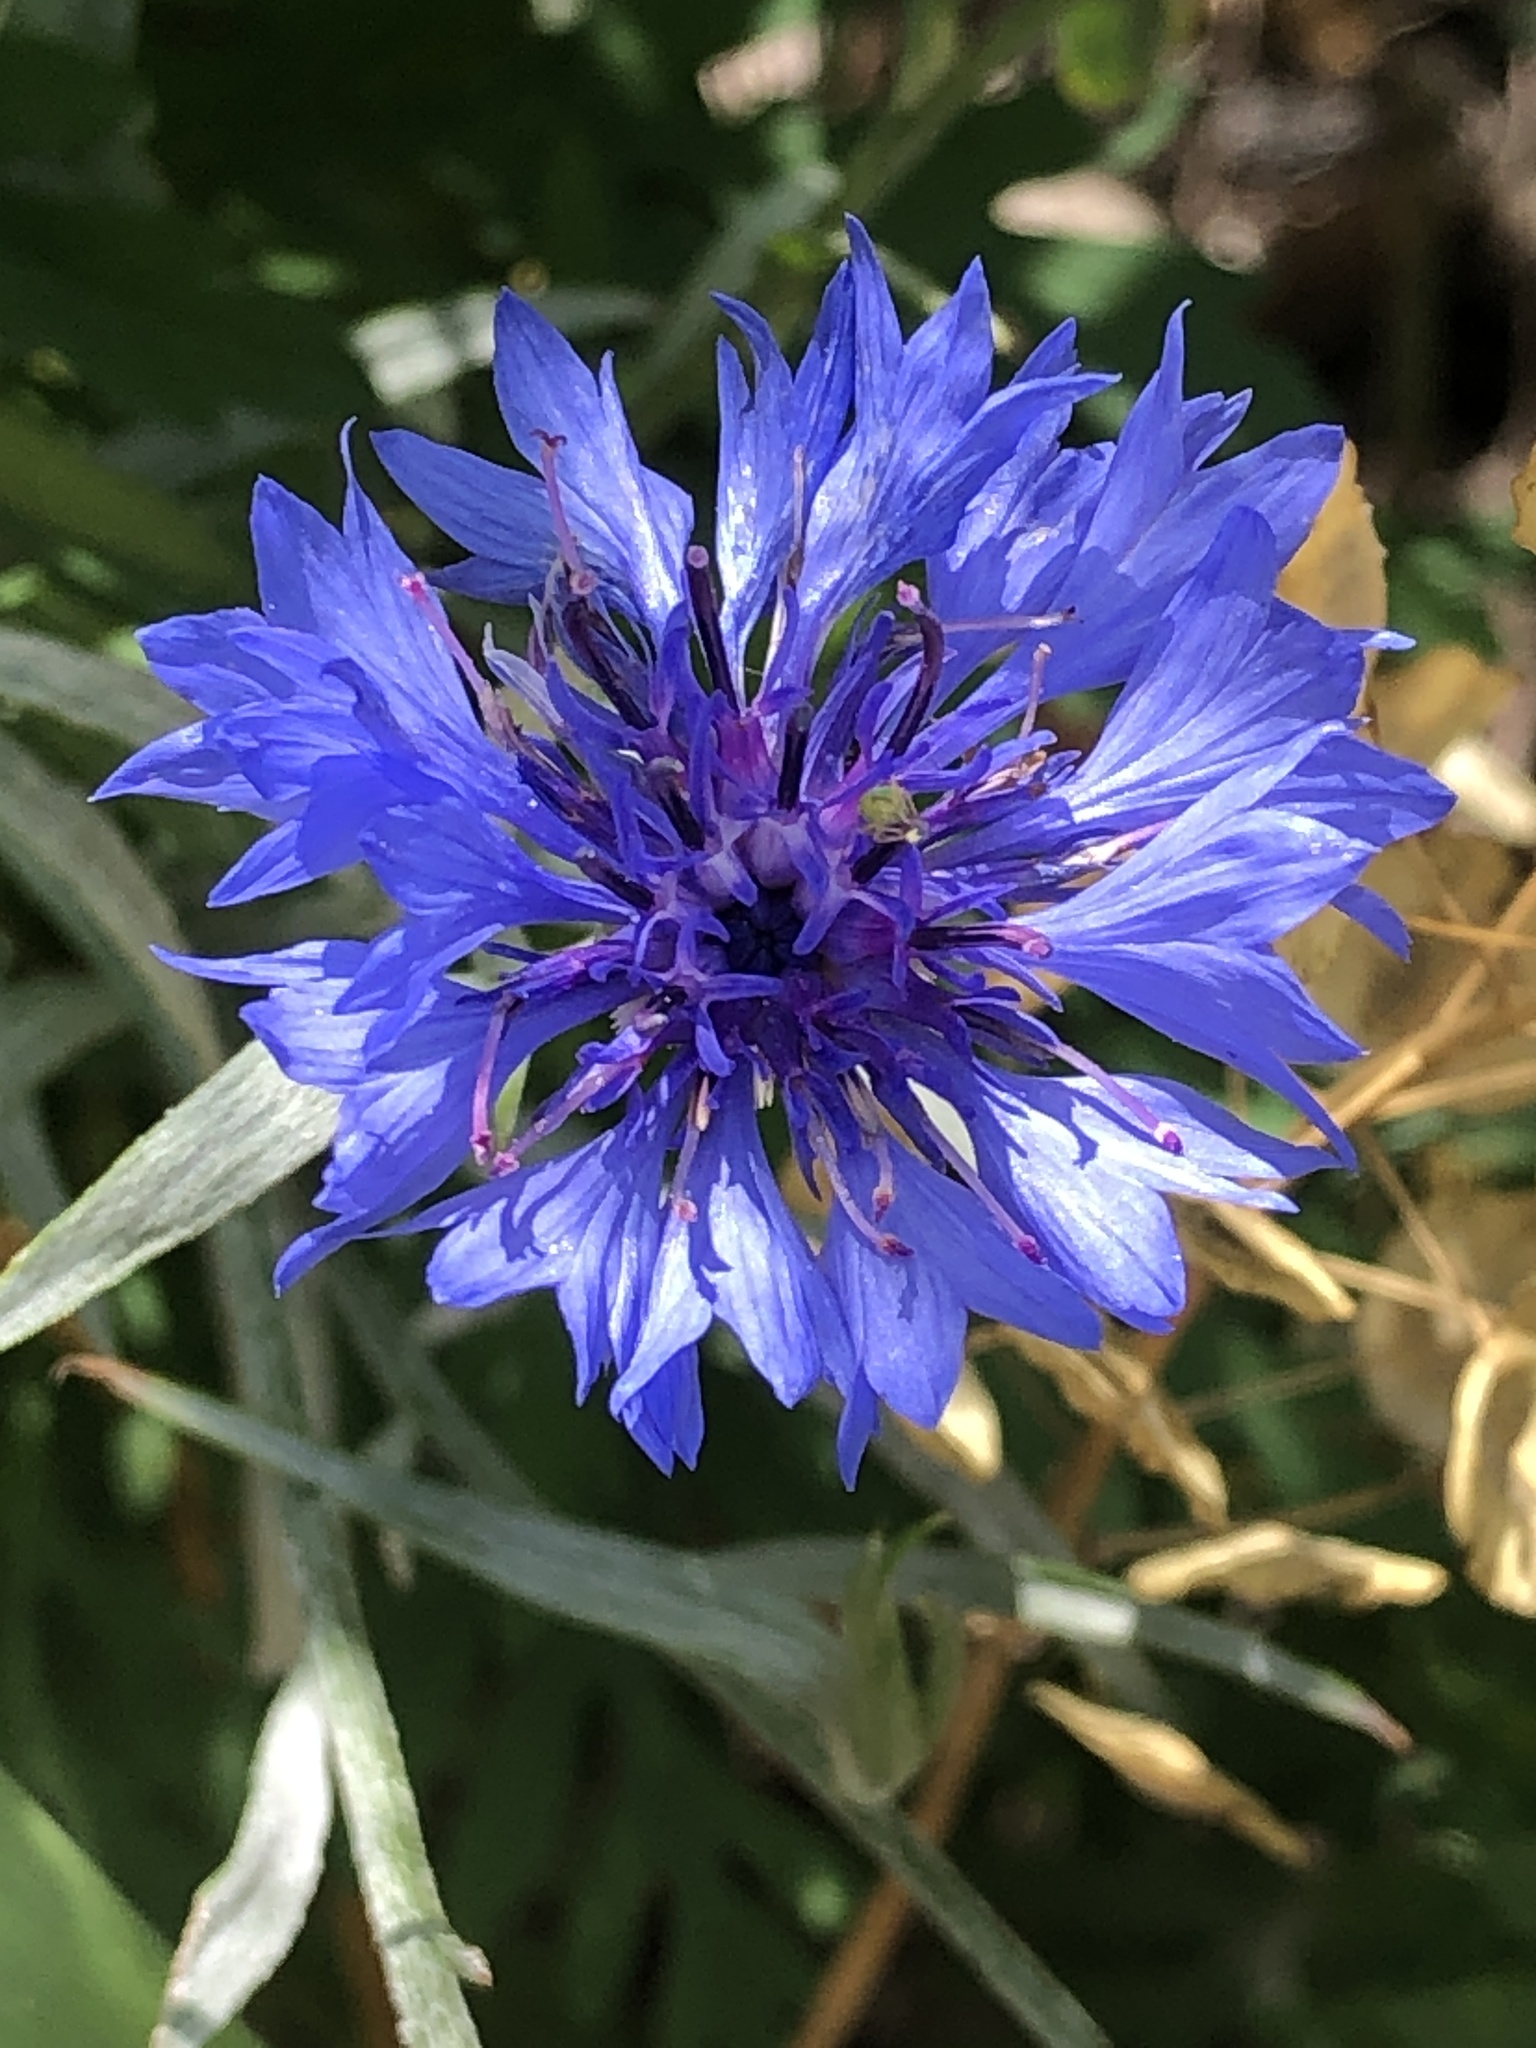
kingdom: Plantae
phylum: Tracheophyta
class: Magnoliopsida
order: Asterales
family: Asteraceae
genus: Centaurea
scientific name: Centaurea cyanus
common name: Cornflower
